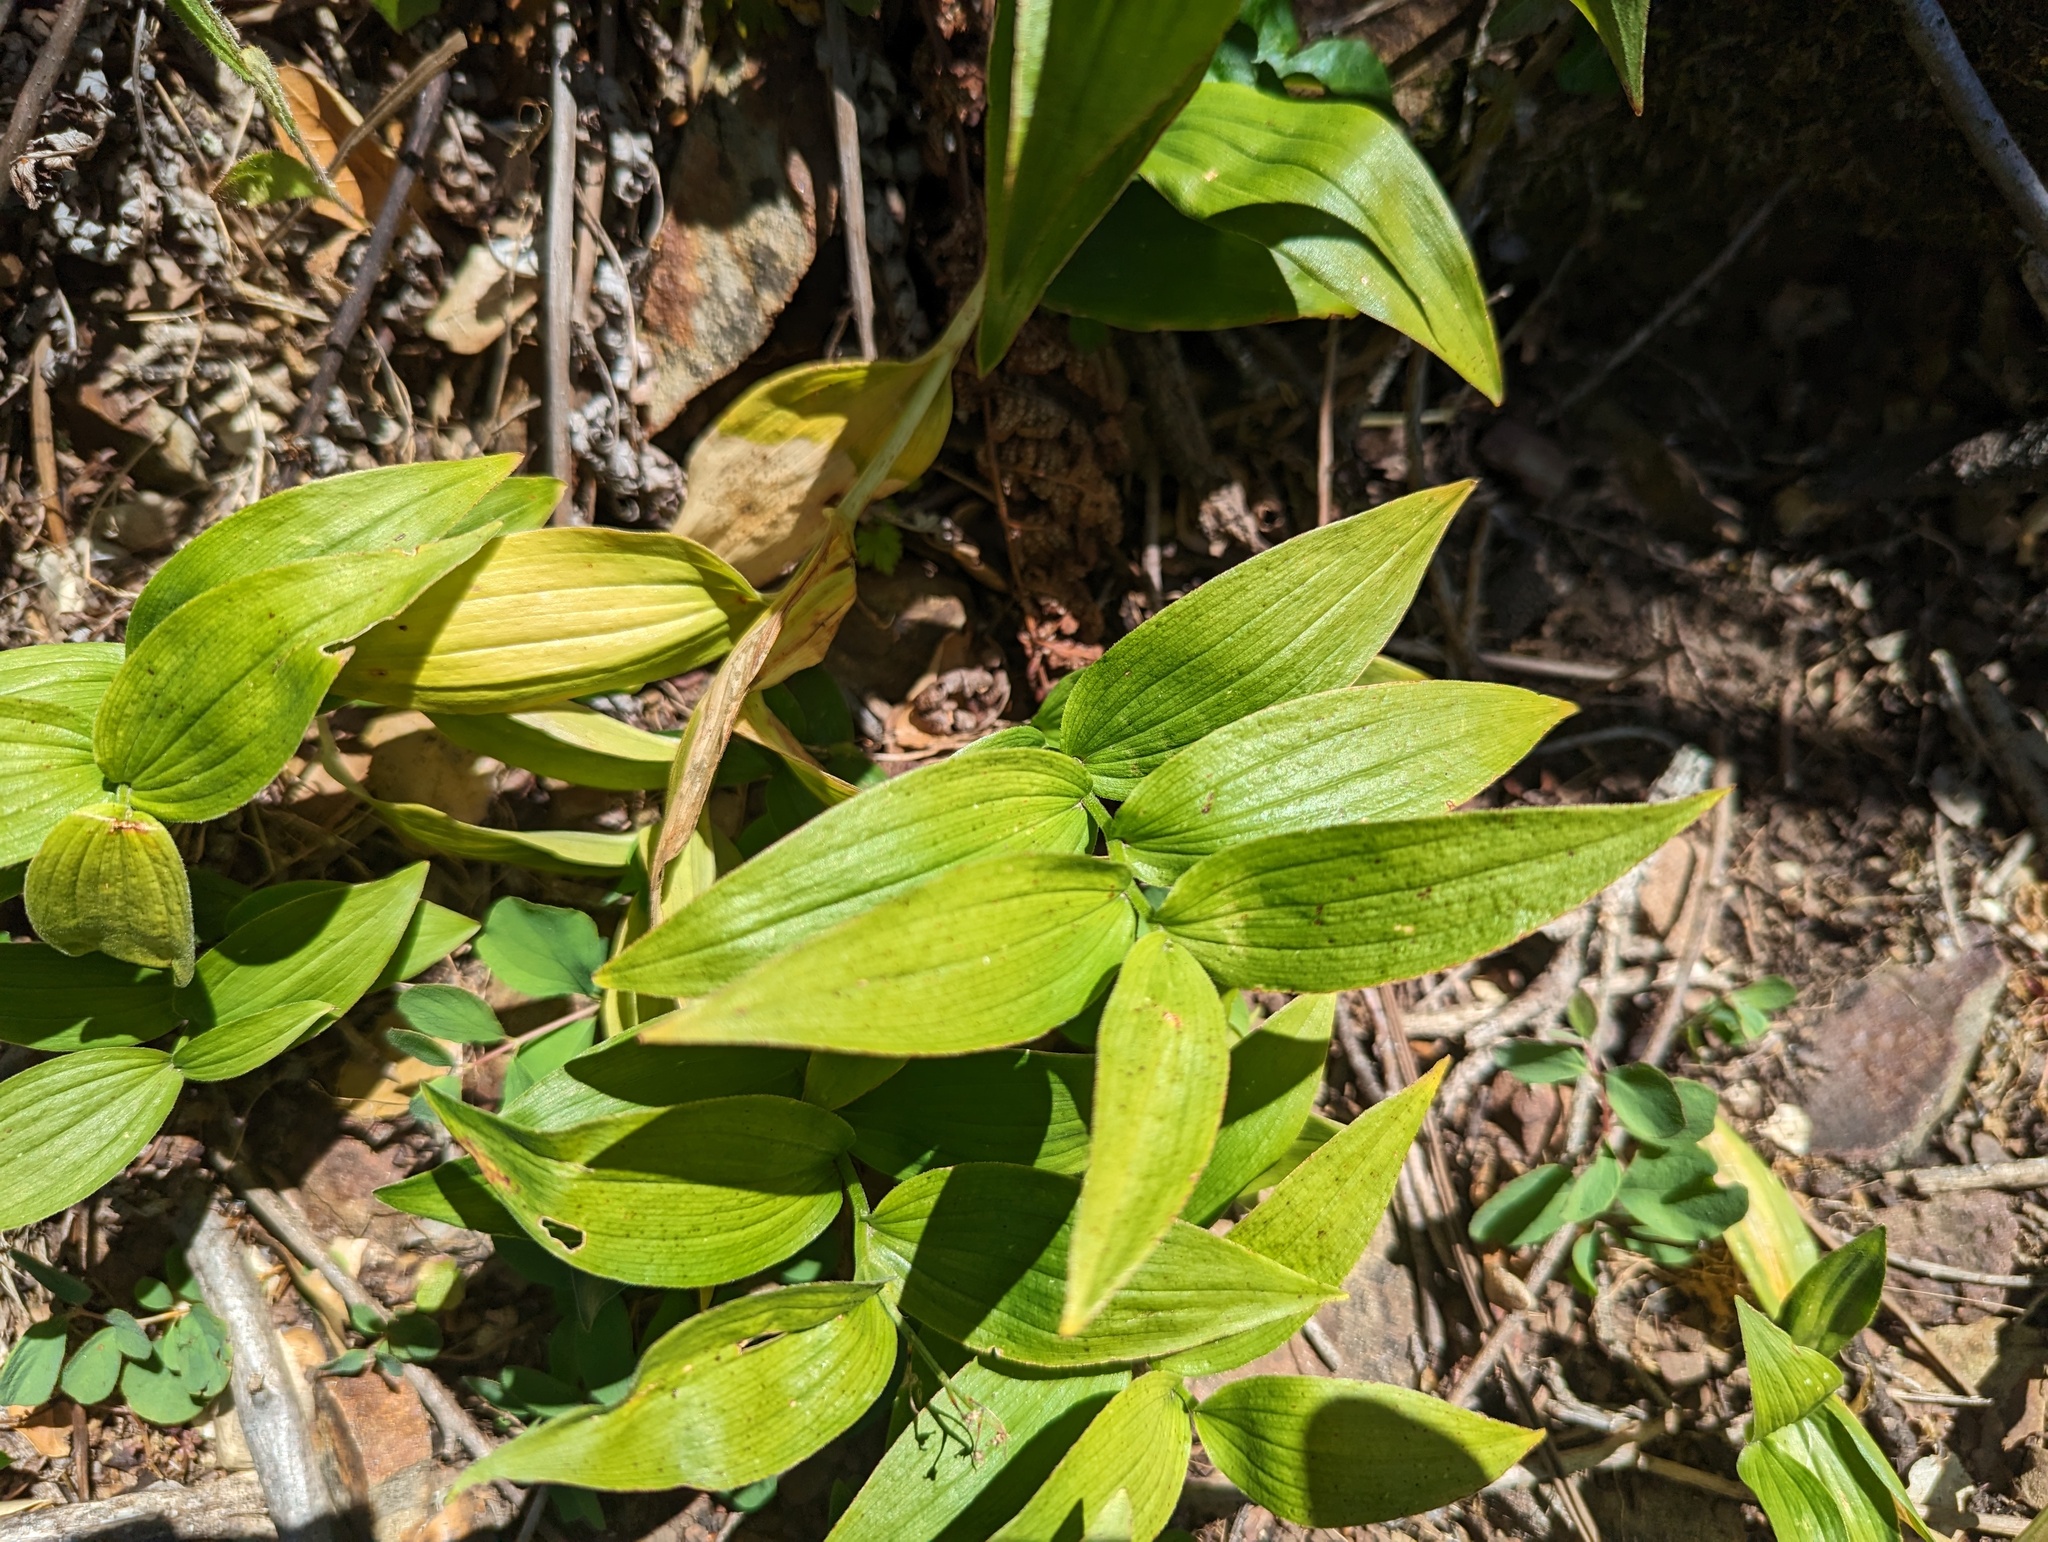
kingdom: Plantae
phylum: Tracheophyta
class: Liliopsida
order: Asparagales
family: Asparagaceae
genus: Maianthemum
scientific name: Maianthemum stellatum
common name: Little false solomon's seal
